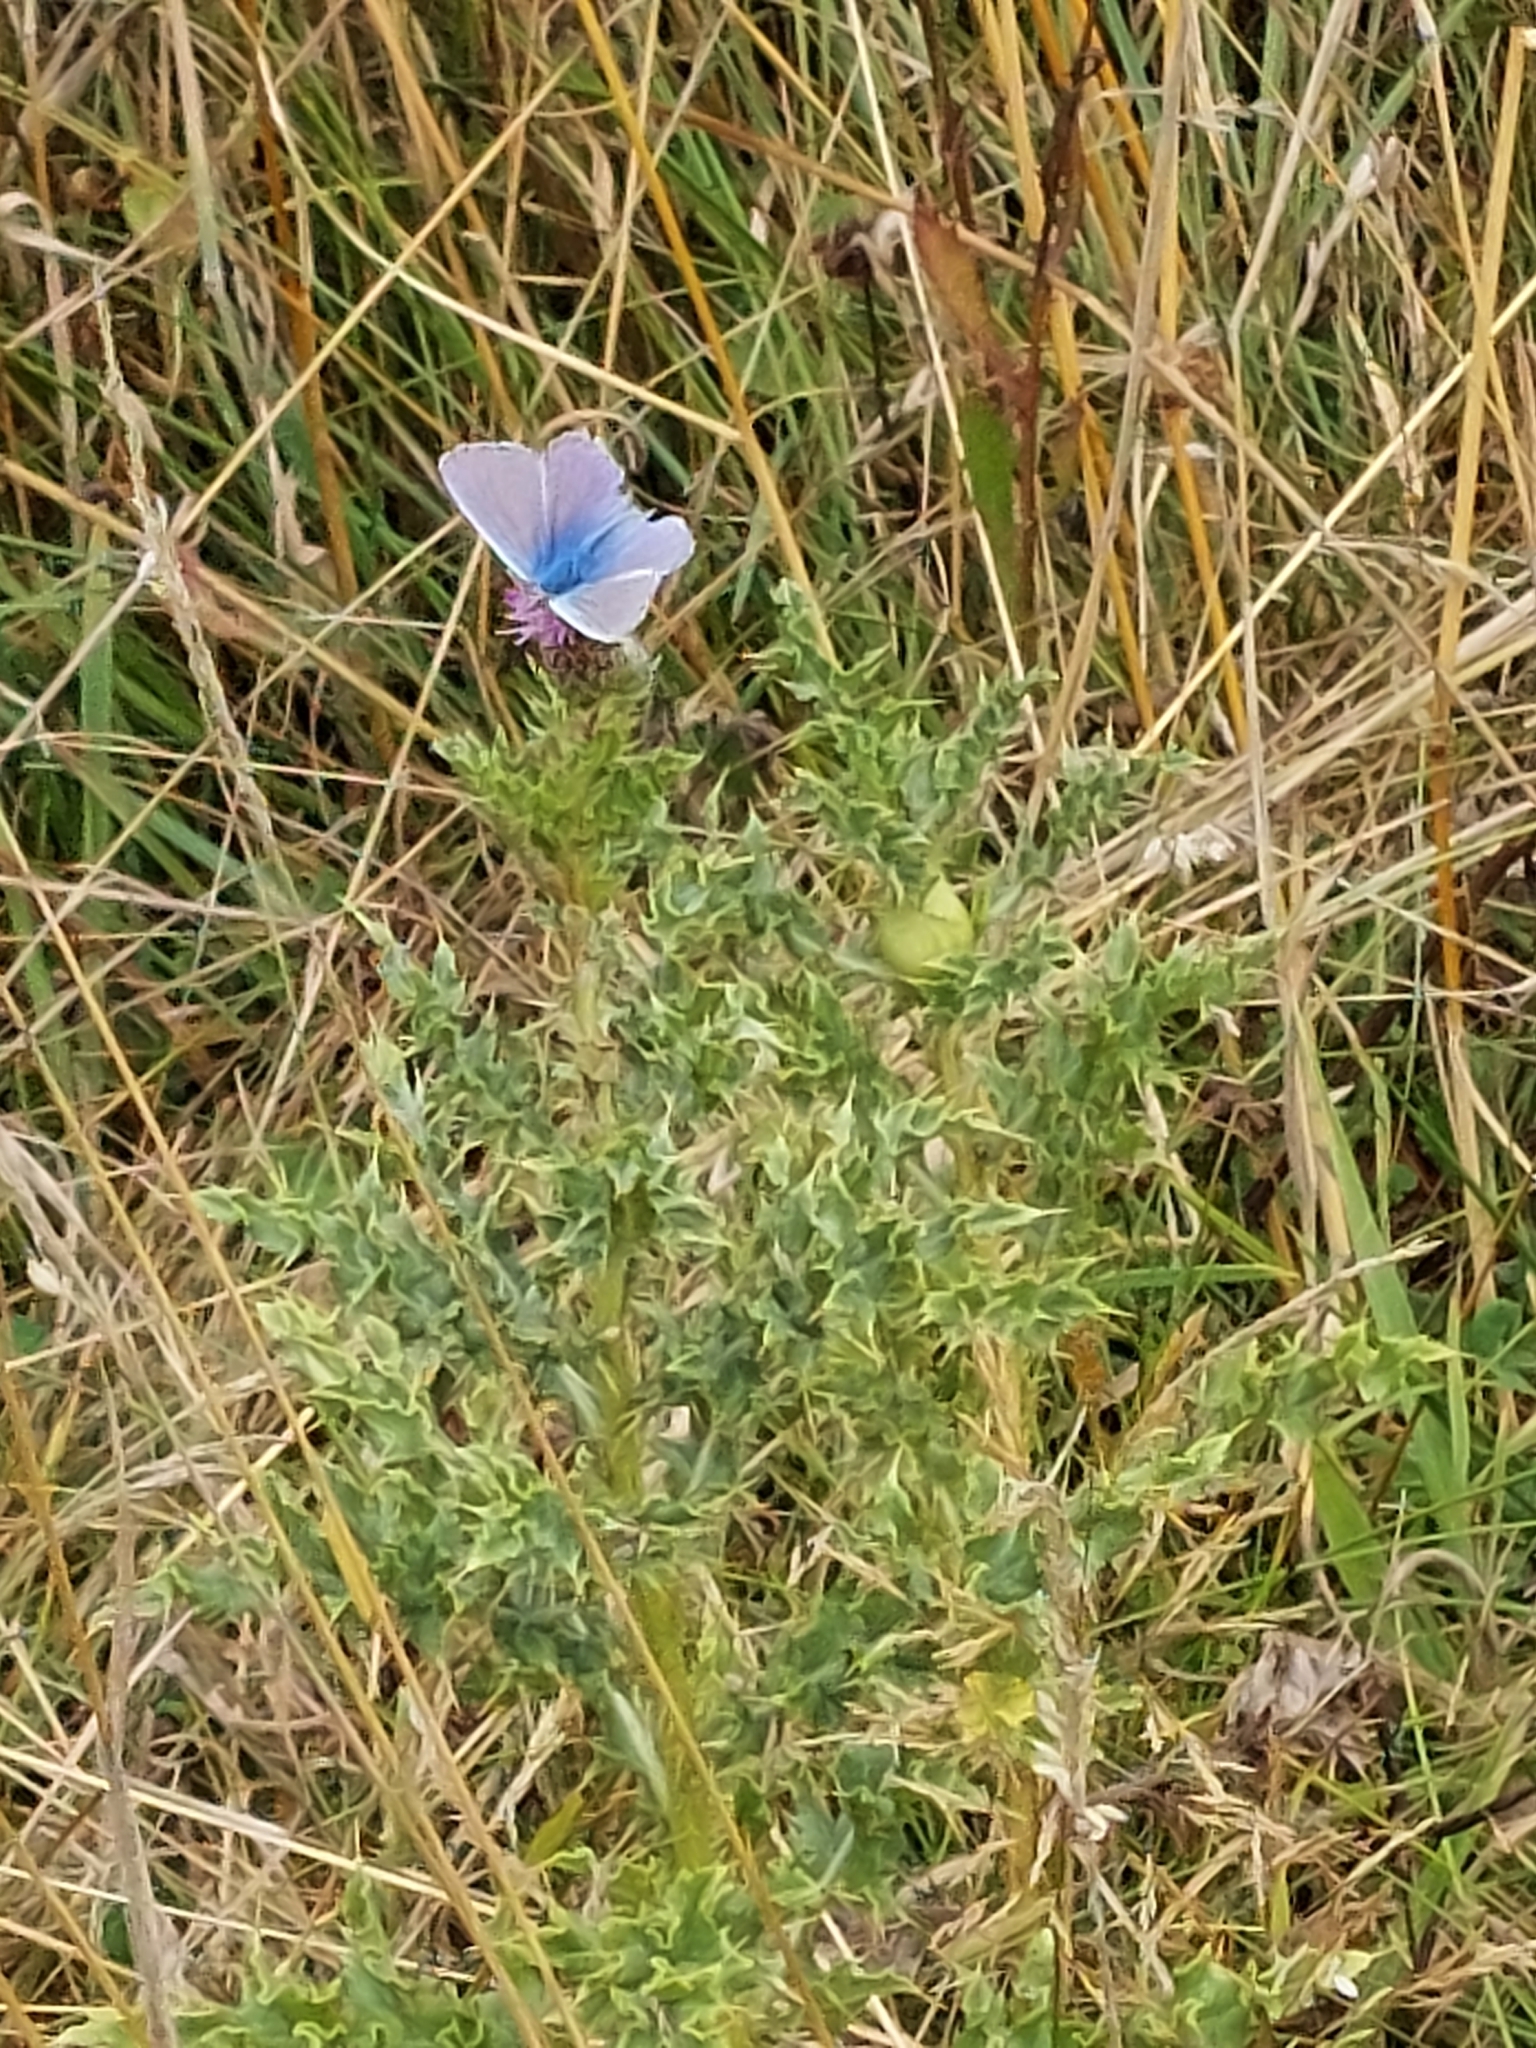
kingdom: Animalia
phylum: Arthropoda
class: Insecta
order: Lepidoptera
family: Lycaenidae
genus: Polyommatus
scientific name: Polyommatus icarus
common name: Common blue
